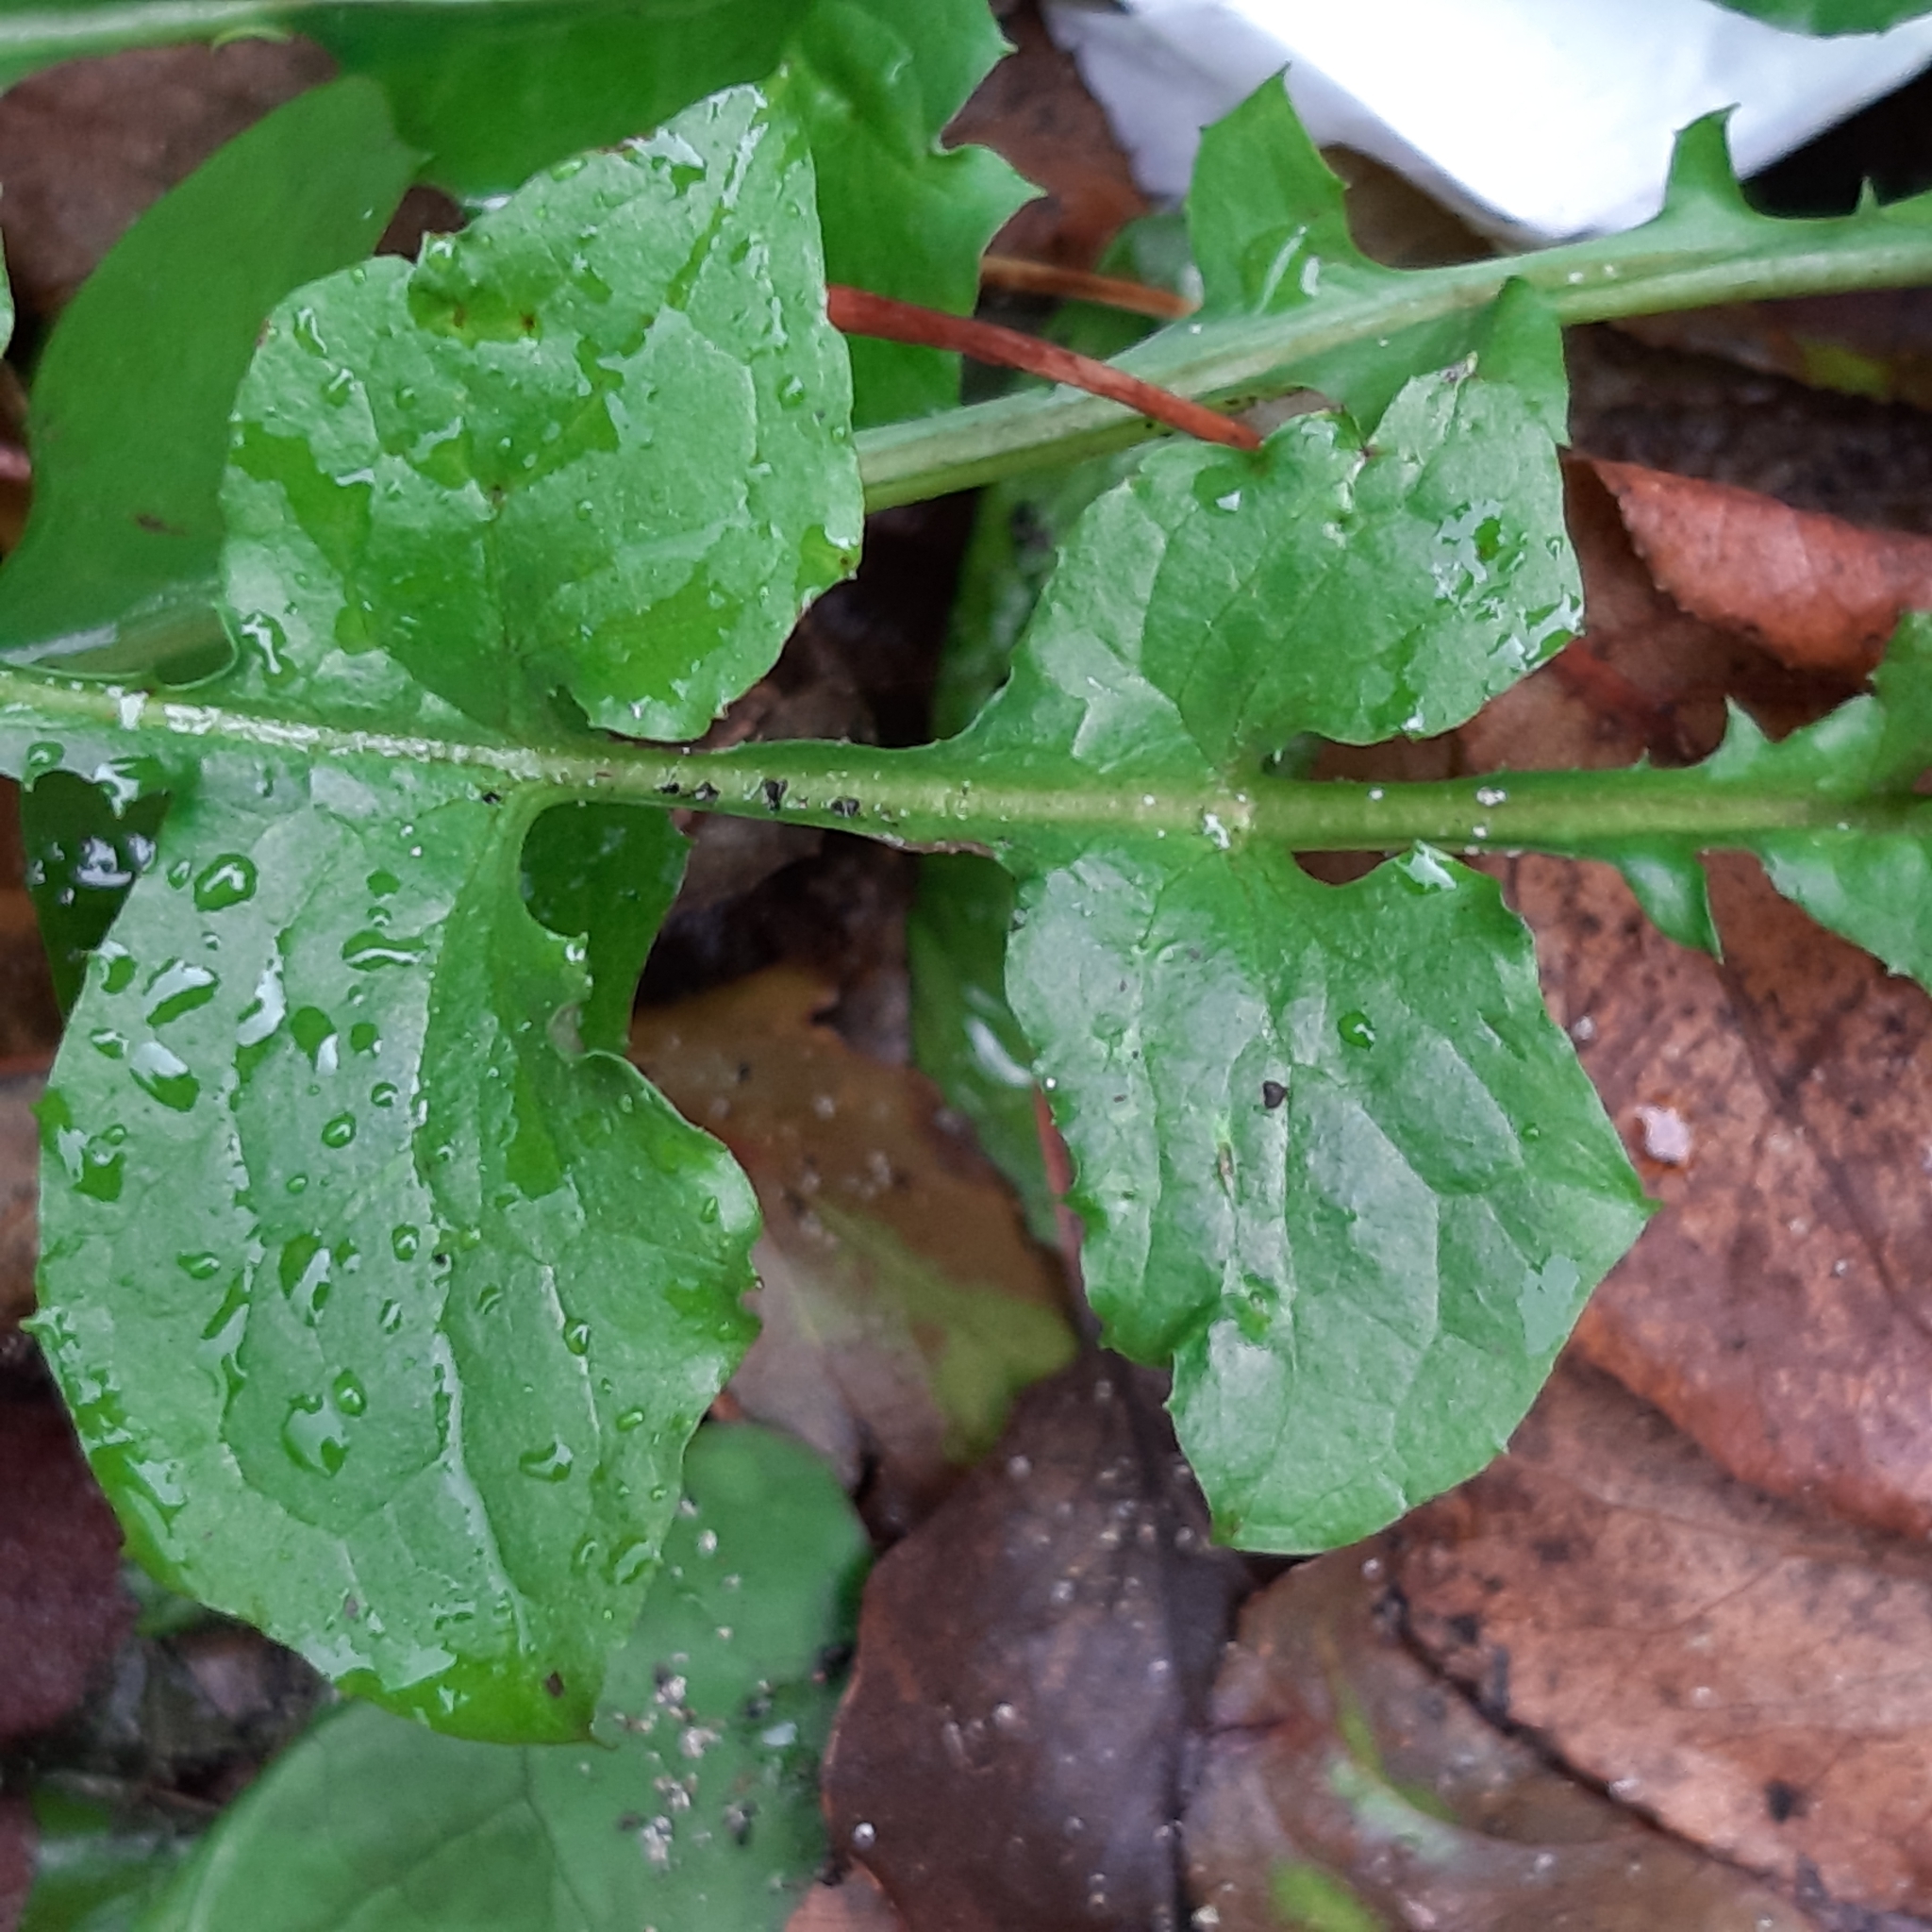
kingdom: Plantae
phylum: Tracheophyta
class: Magnoliopsida
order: Asterales
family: Asteraceae
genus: Mycelis
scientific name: Mycelis muralis
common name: Wall lettuce
